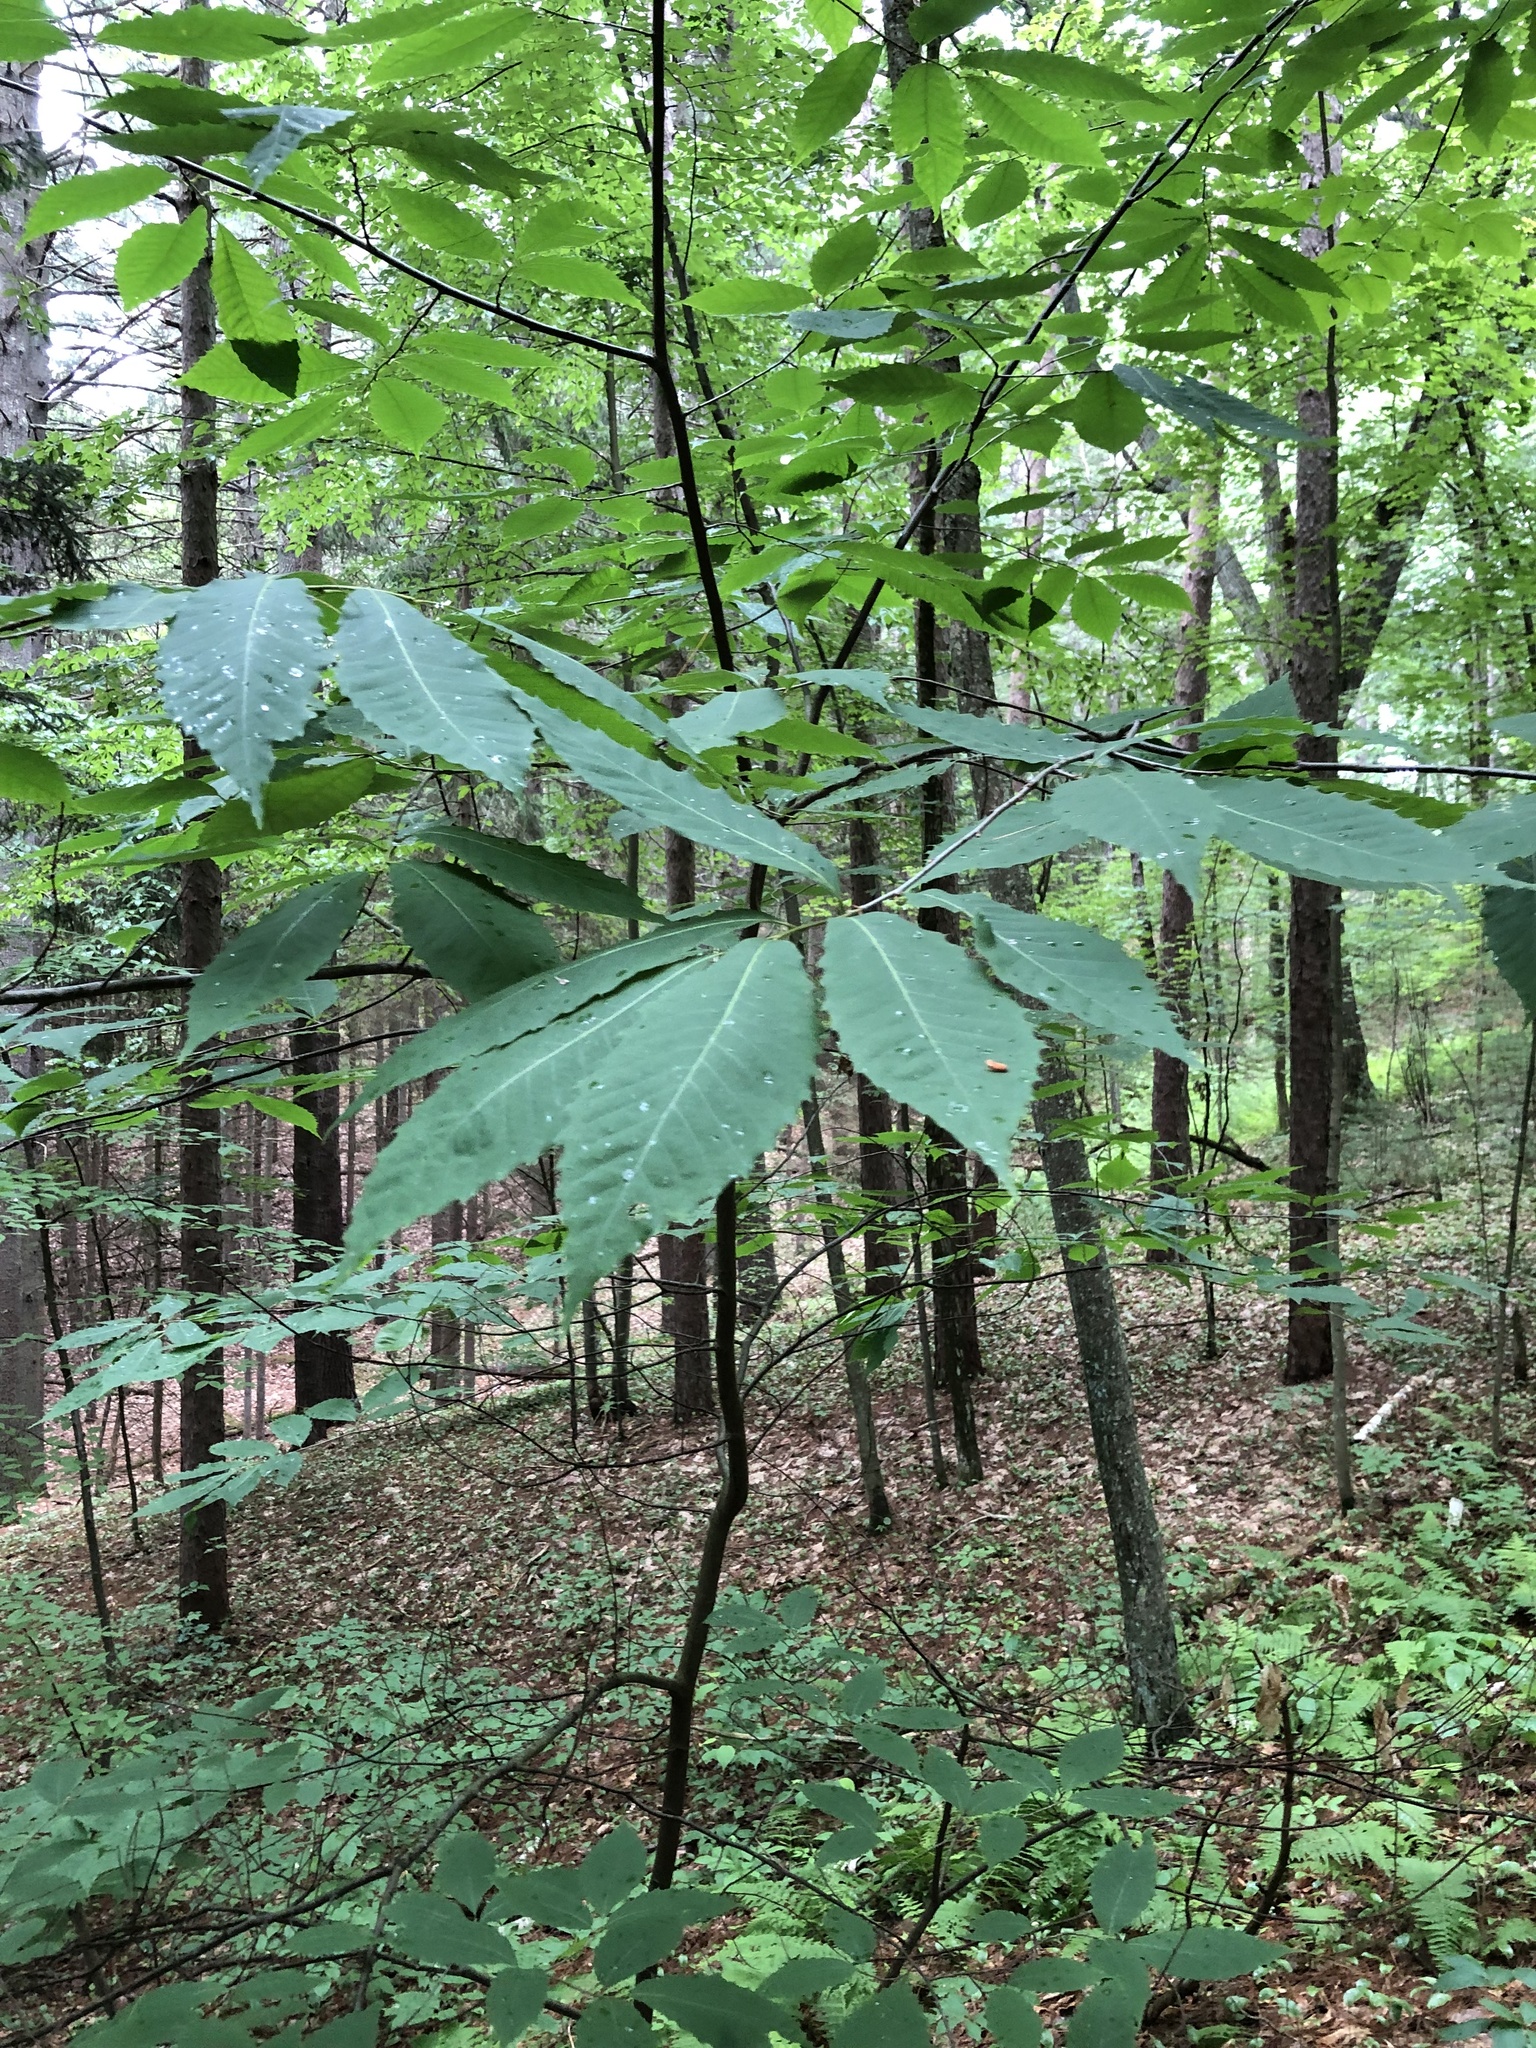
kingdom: Plantae
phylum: Tracheophyta
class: Magnoliopsida
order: Fagales
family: Fagaceae
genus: Castanea
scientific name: Castanea dentata
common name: American chestnut
